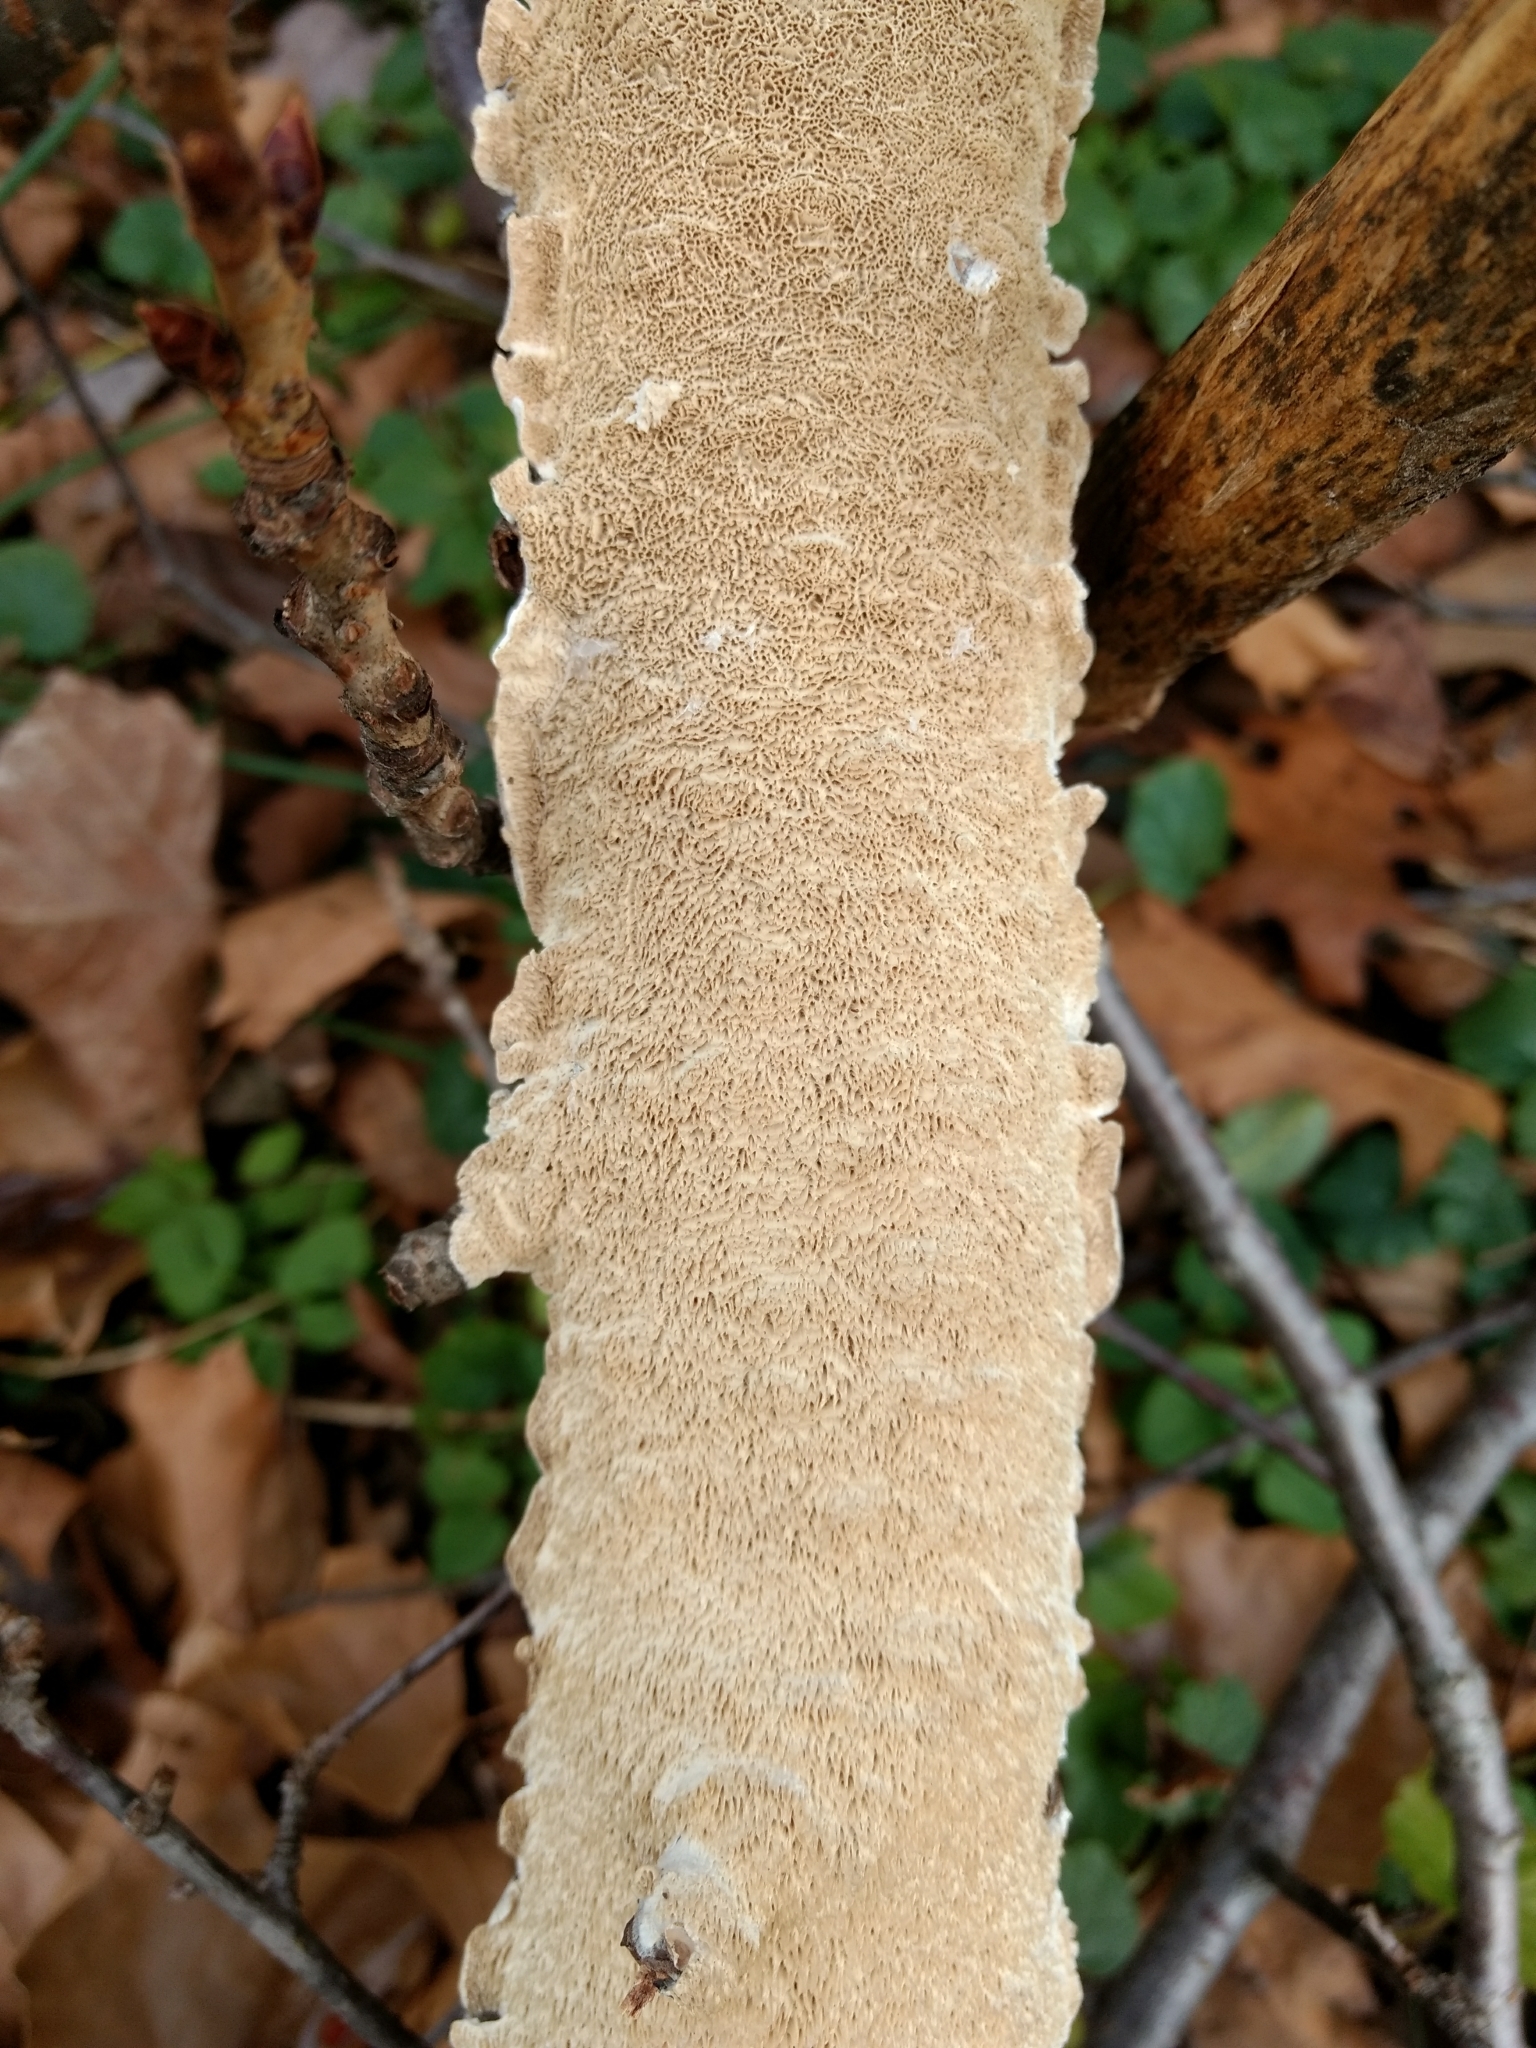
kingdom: Fungi
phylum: Basidiomycota
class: Agaricomycetes
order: Polyporales
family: Irpicaceae
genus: Irpex
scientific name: Irpex lacteus
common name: Milk-white toothed polypore
